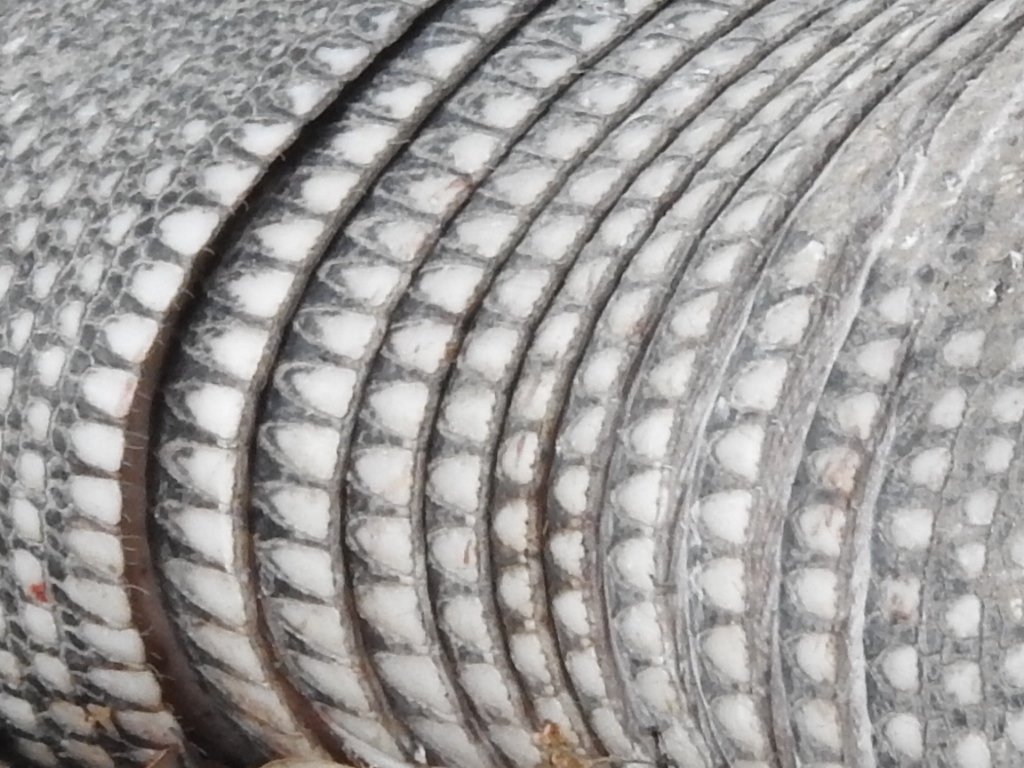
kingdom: Animalia
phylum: Chordata
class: Mammalia
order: Cingulata
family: Dasypodidae
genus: Dasypus
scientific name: Dasypus novemcinctus
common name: Nine-banded armadillo
